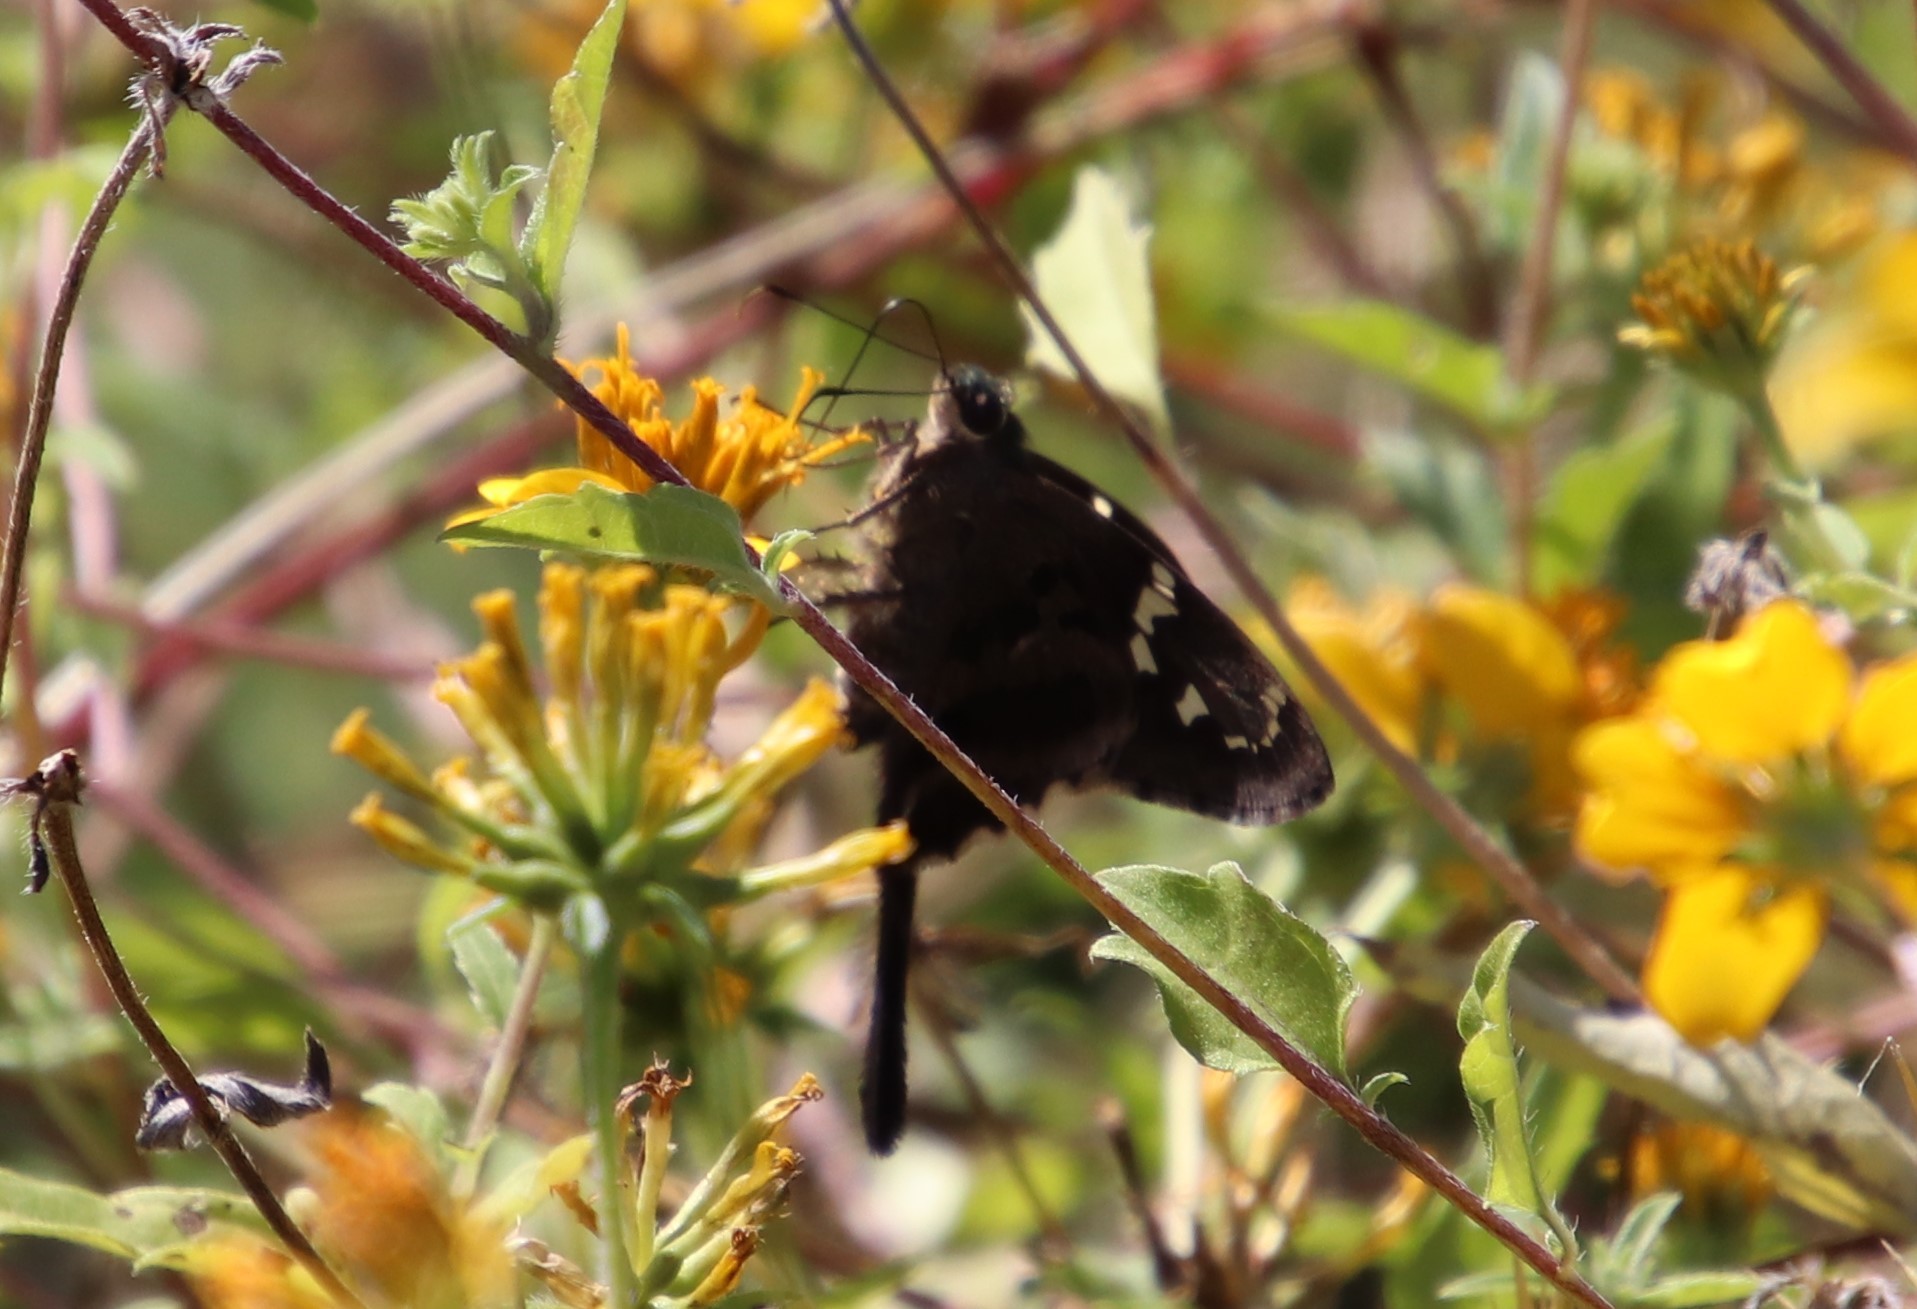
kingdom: Animalia
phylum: Arthropoda
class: Insecta
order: Lepidoptera
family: Hesperiidae
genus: Urbanus
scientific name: Urbanus proteus
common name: Long-tailed skipper
